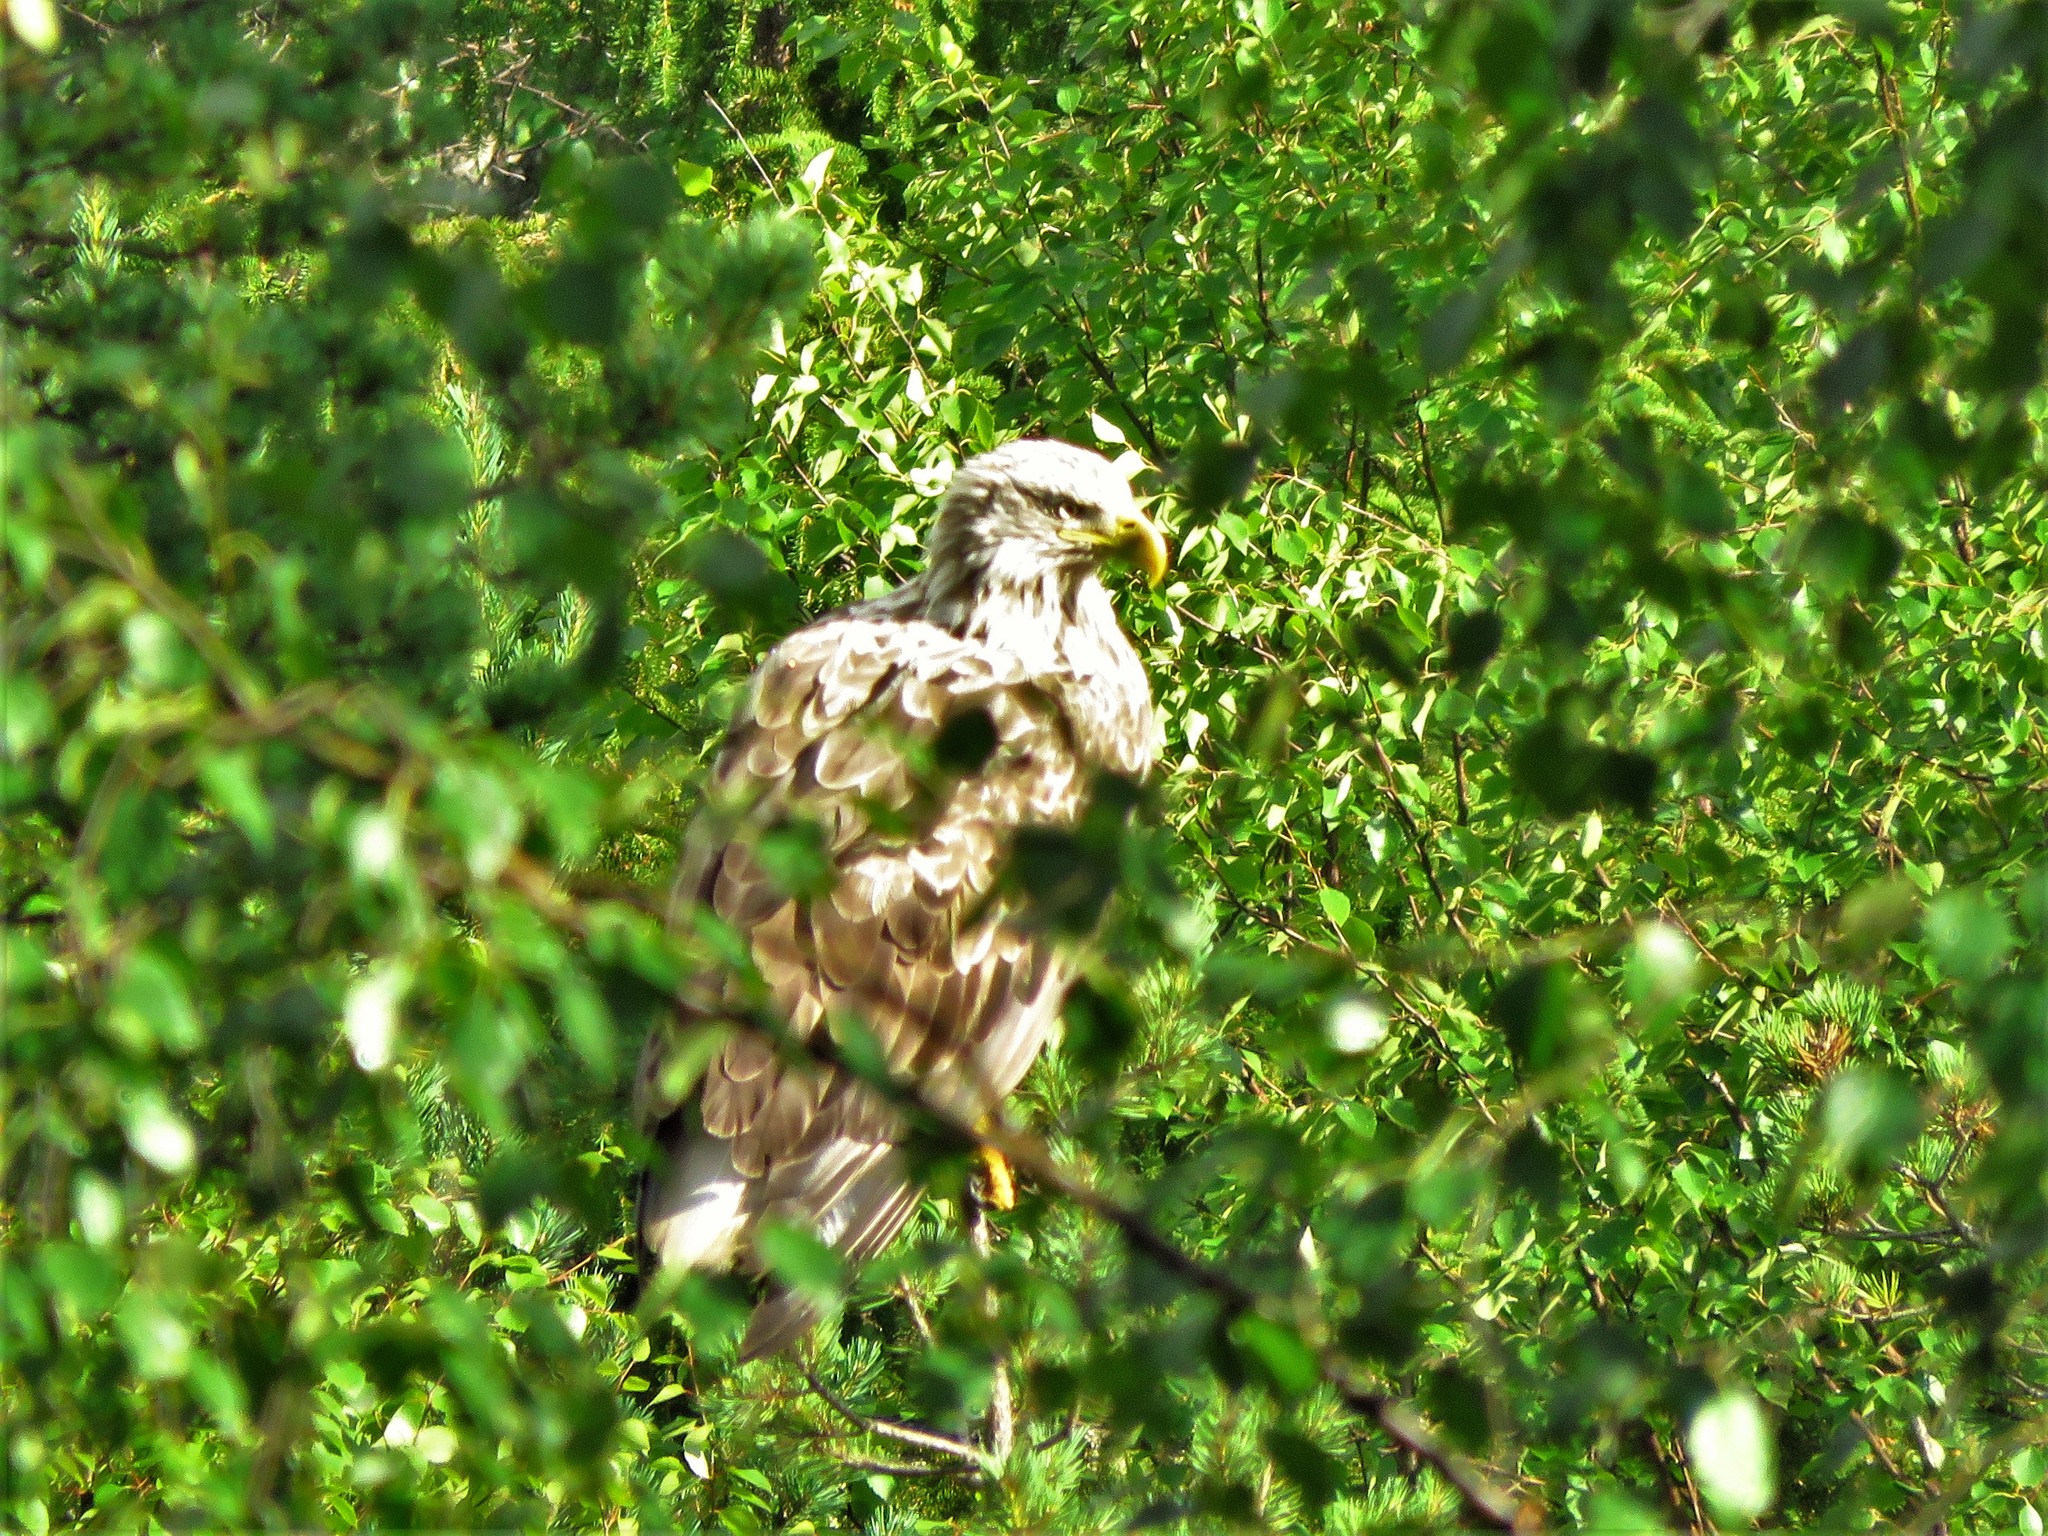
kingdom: Animalia
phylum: Chordata
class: Aves
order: Accipitriformes
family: Accipitridae
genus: Haliaeetus
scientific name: Haliaeetus albicilla
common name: White-tailed eagle
